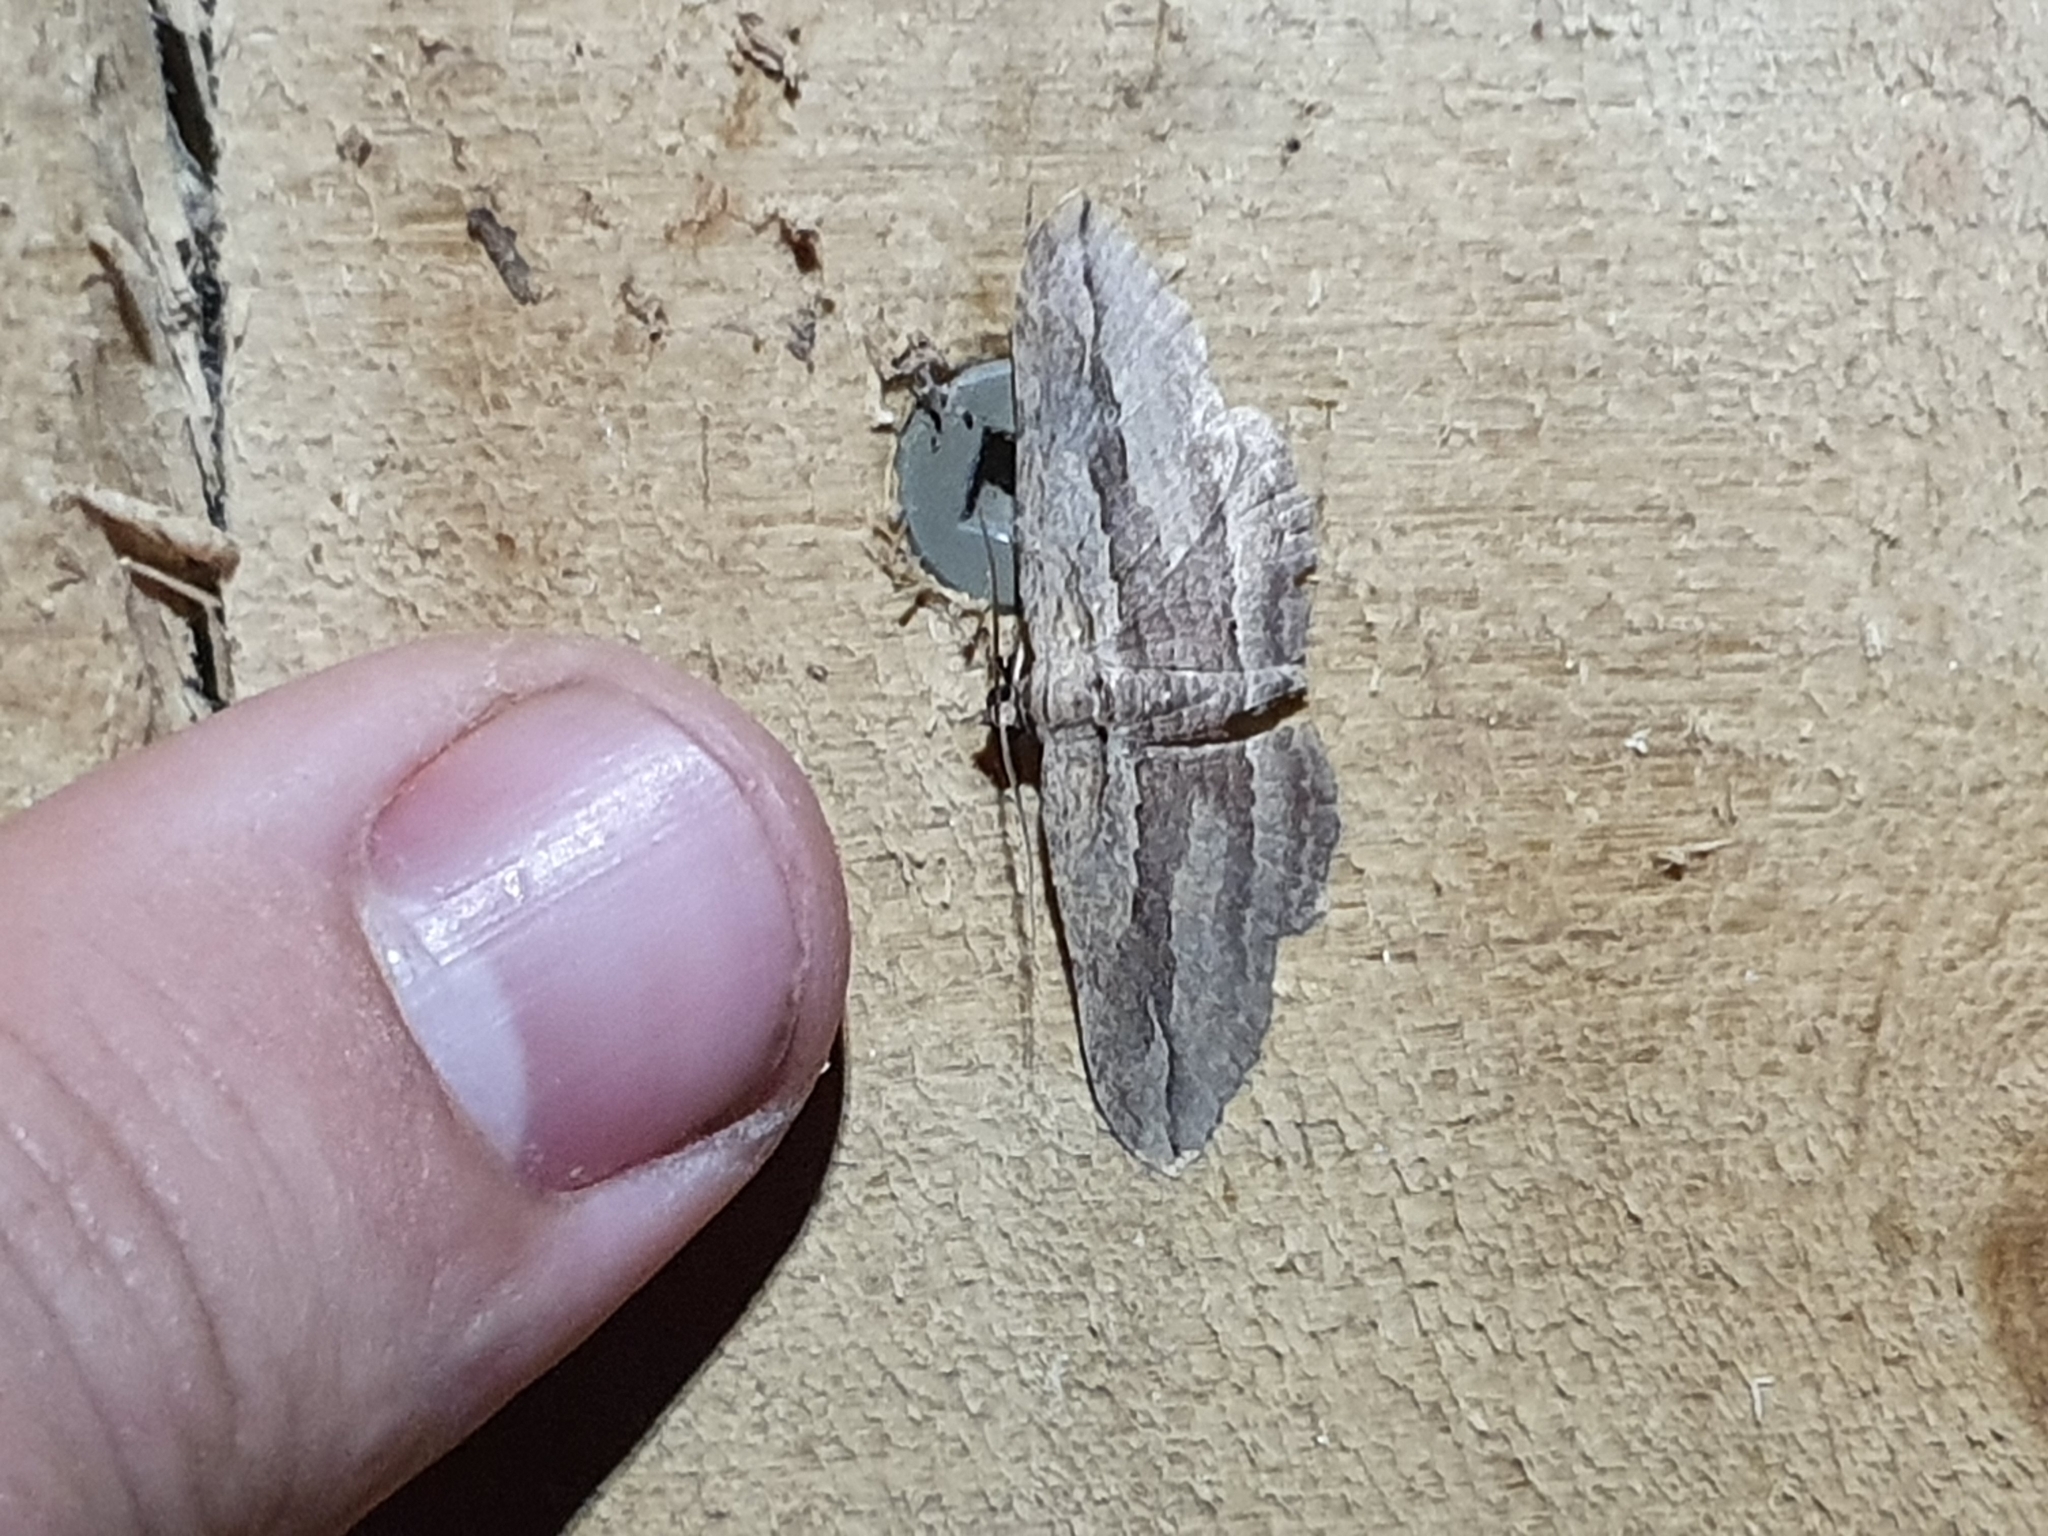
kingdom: Animalia
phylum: Arthropoda
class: Insecta
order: Lepidoptera
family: Geometridae
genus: Austrocidaria
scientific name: Austrocidaria gobiata
